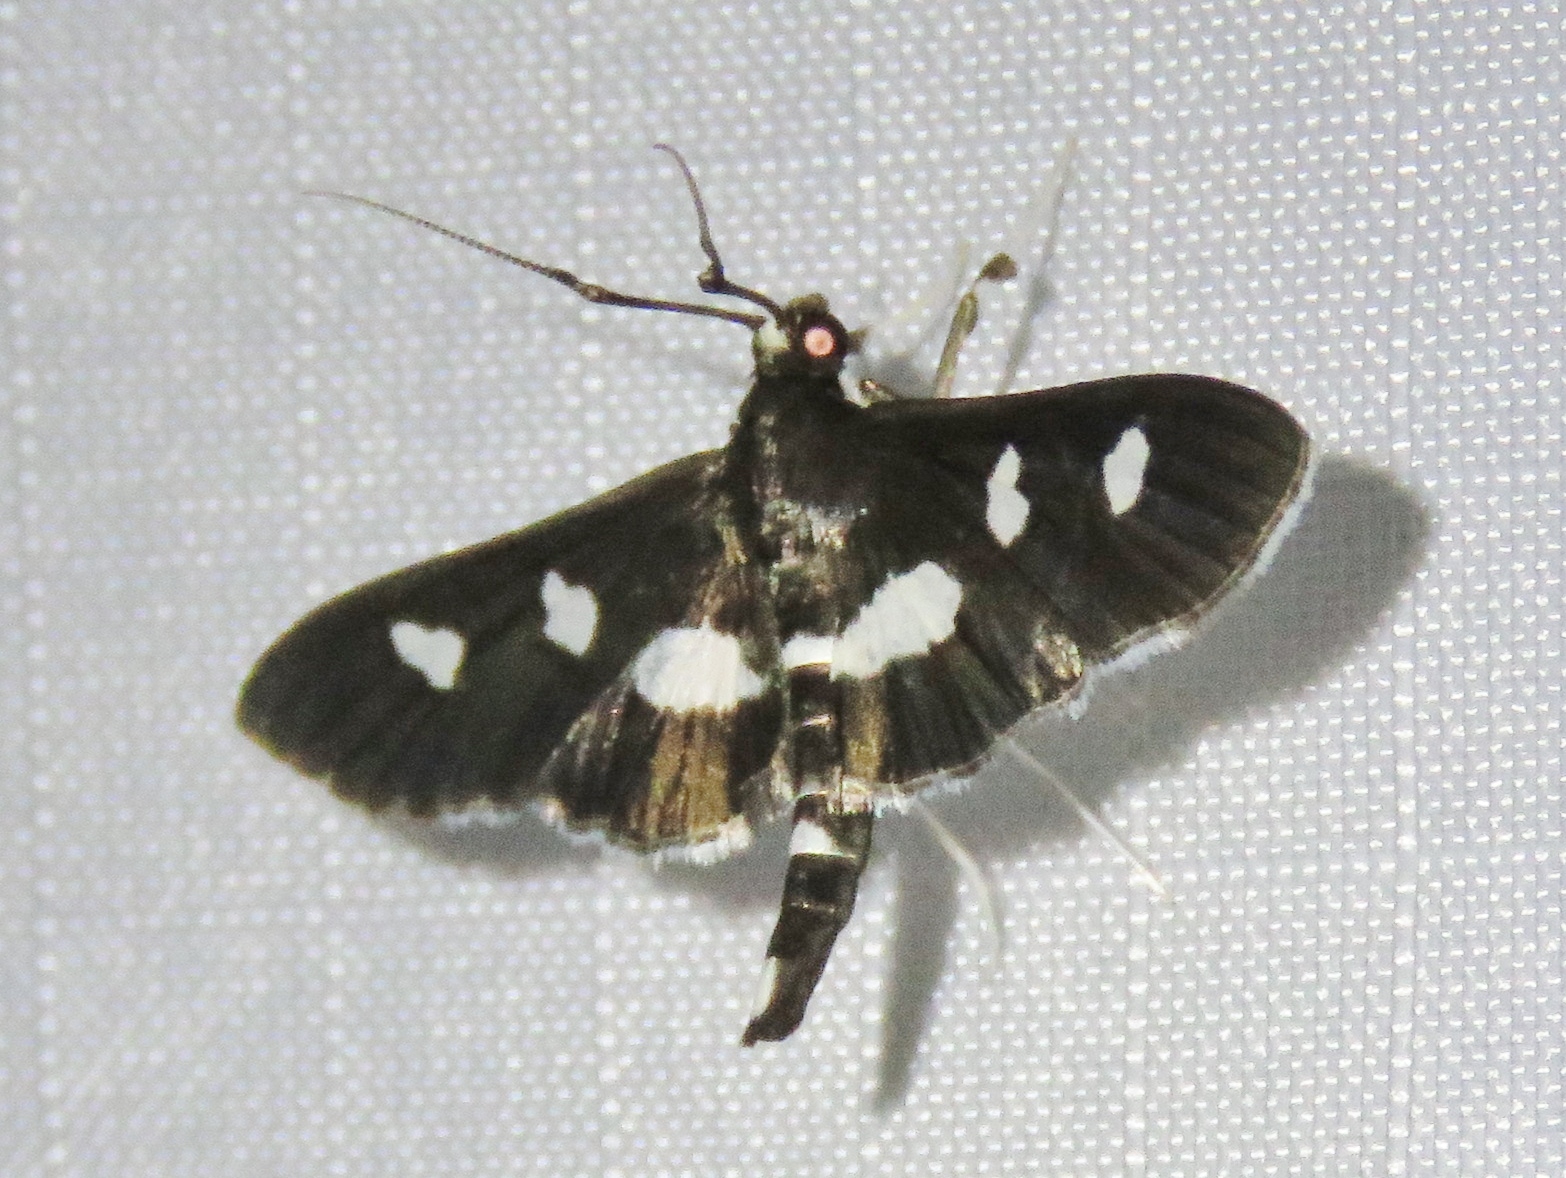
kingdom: Animalia
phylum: Arthropoda
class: Insecta
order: Lepidoptera
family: Crambidae
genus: Desmia
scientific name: Desmia
